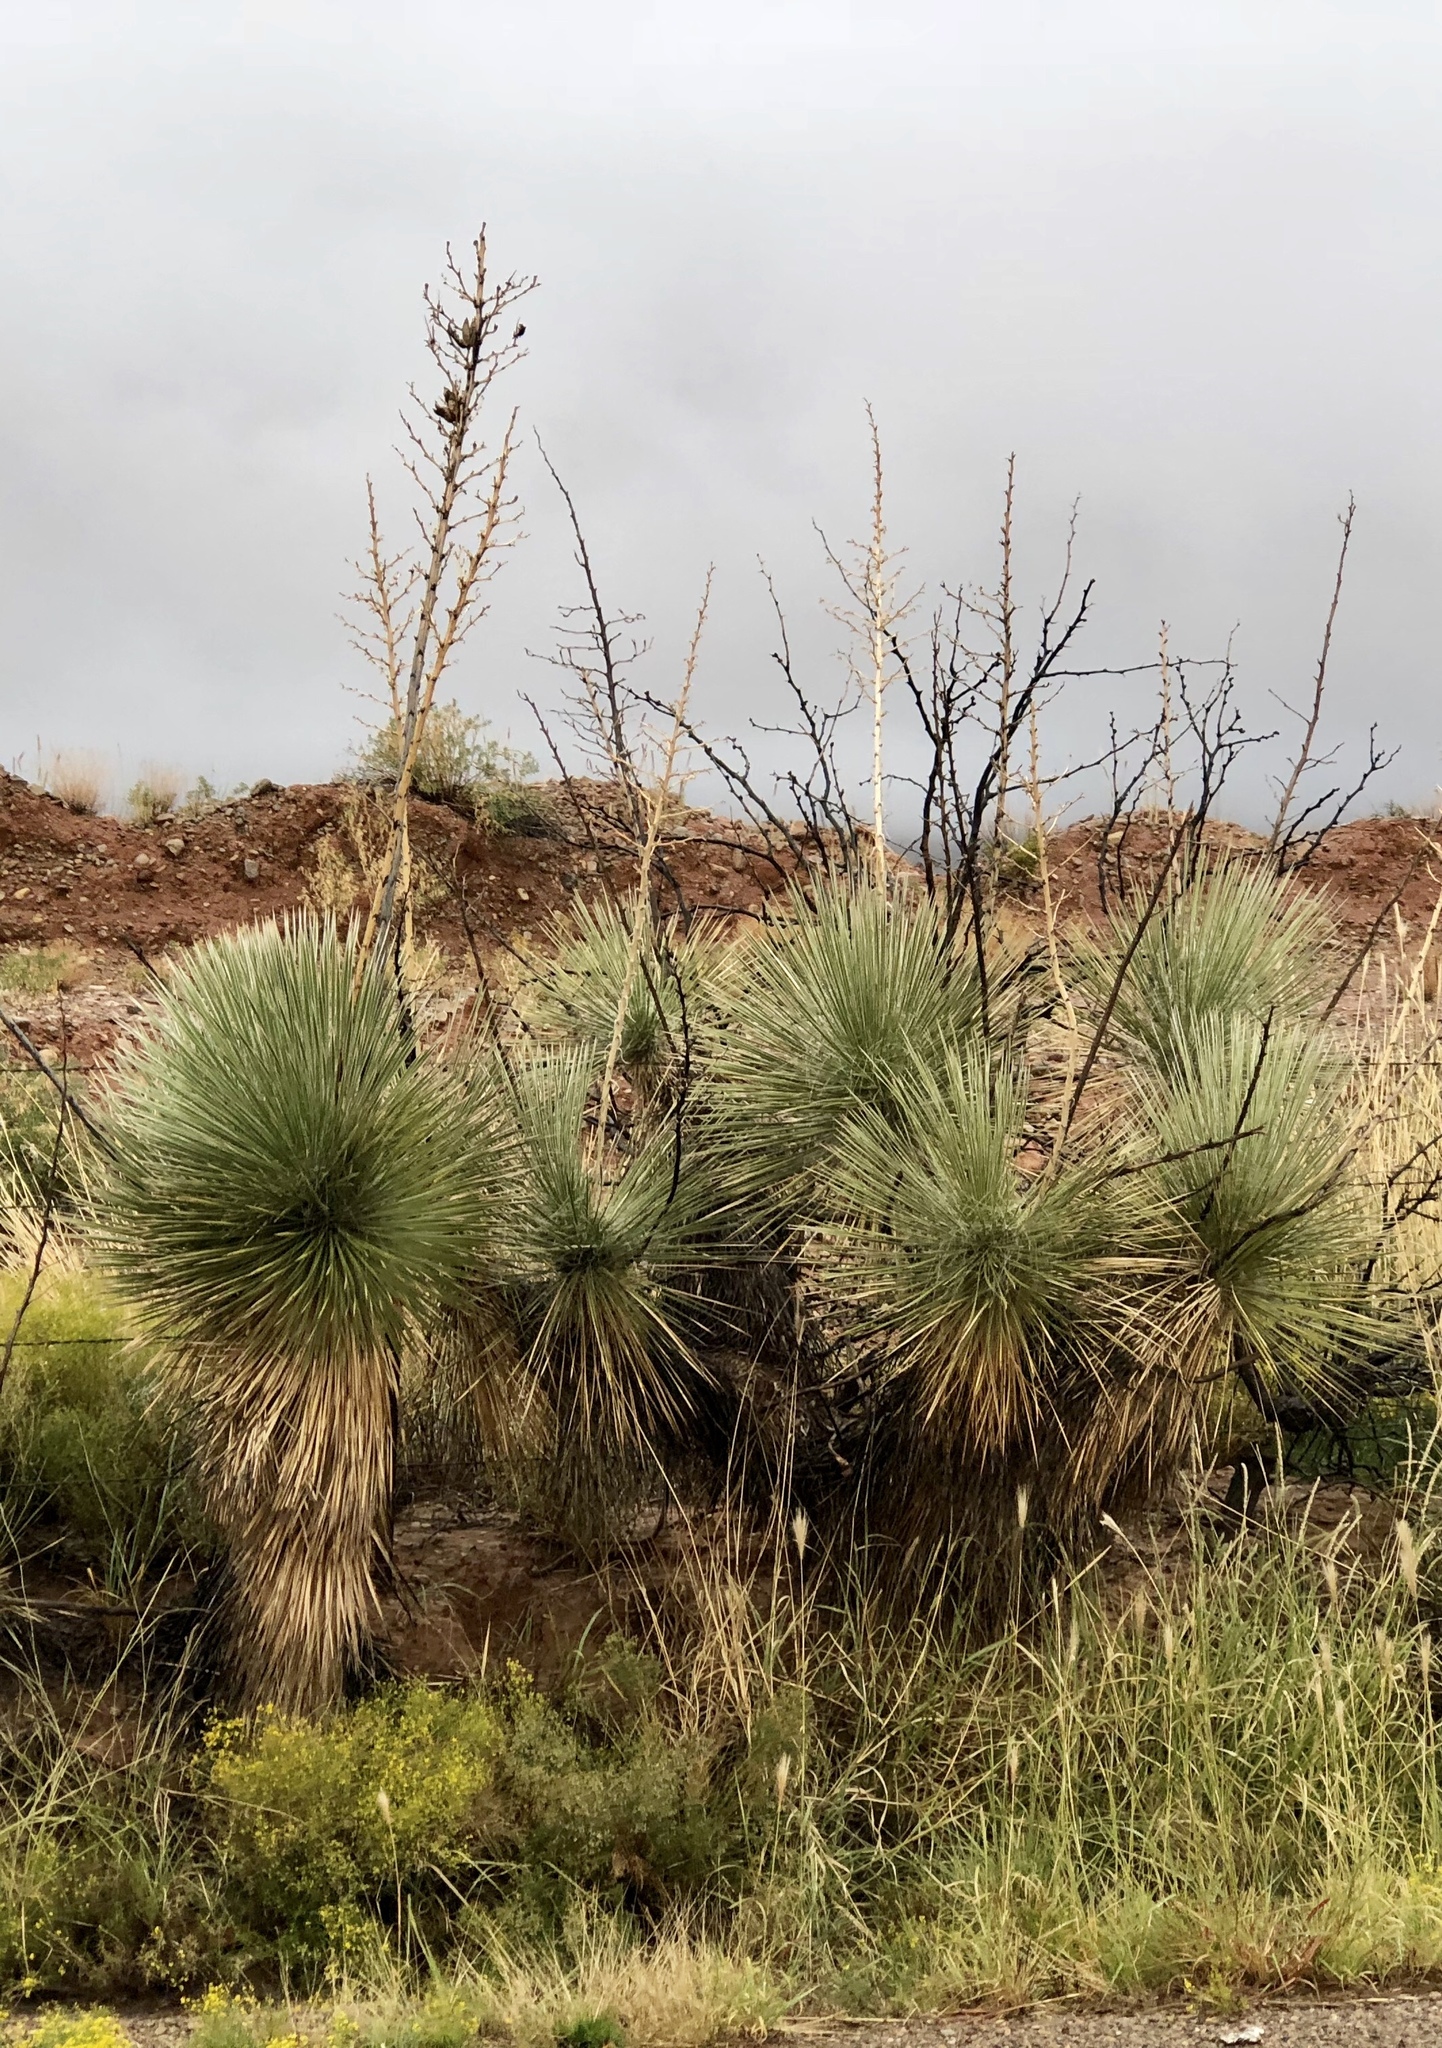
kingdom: Plantae
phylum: Tracheophyta
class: Liliopsida
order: Asparagales
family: Asparagaceae
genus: Yucca
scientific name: Yucca elata
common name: Palmella
